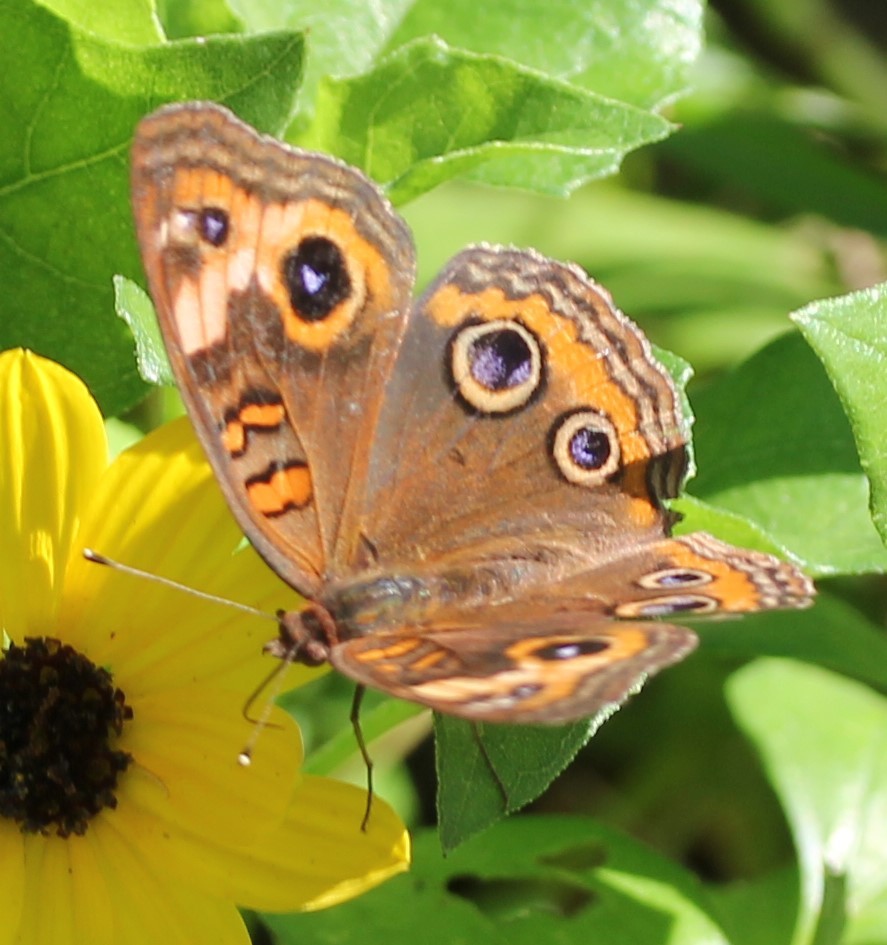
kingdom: Animalia
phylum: Arthropoda
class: Insecta
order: Lepidoptera
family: Nymphalidae
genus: Junonia
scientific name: Junonia neildi
